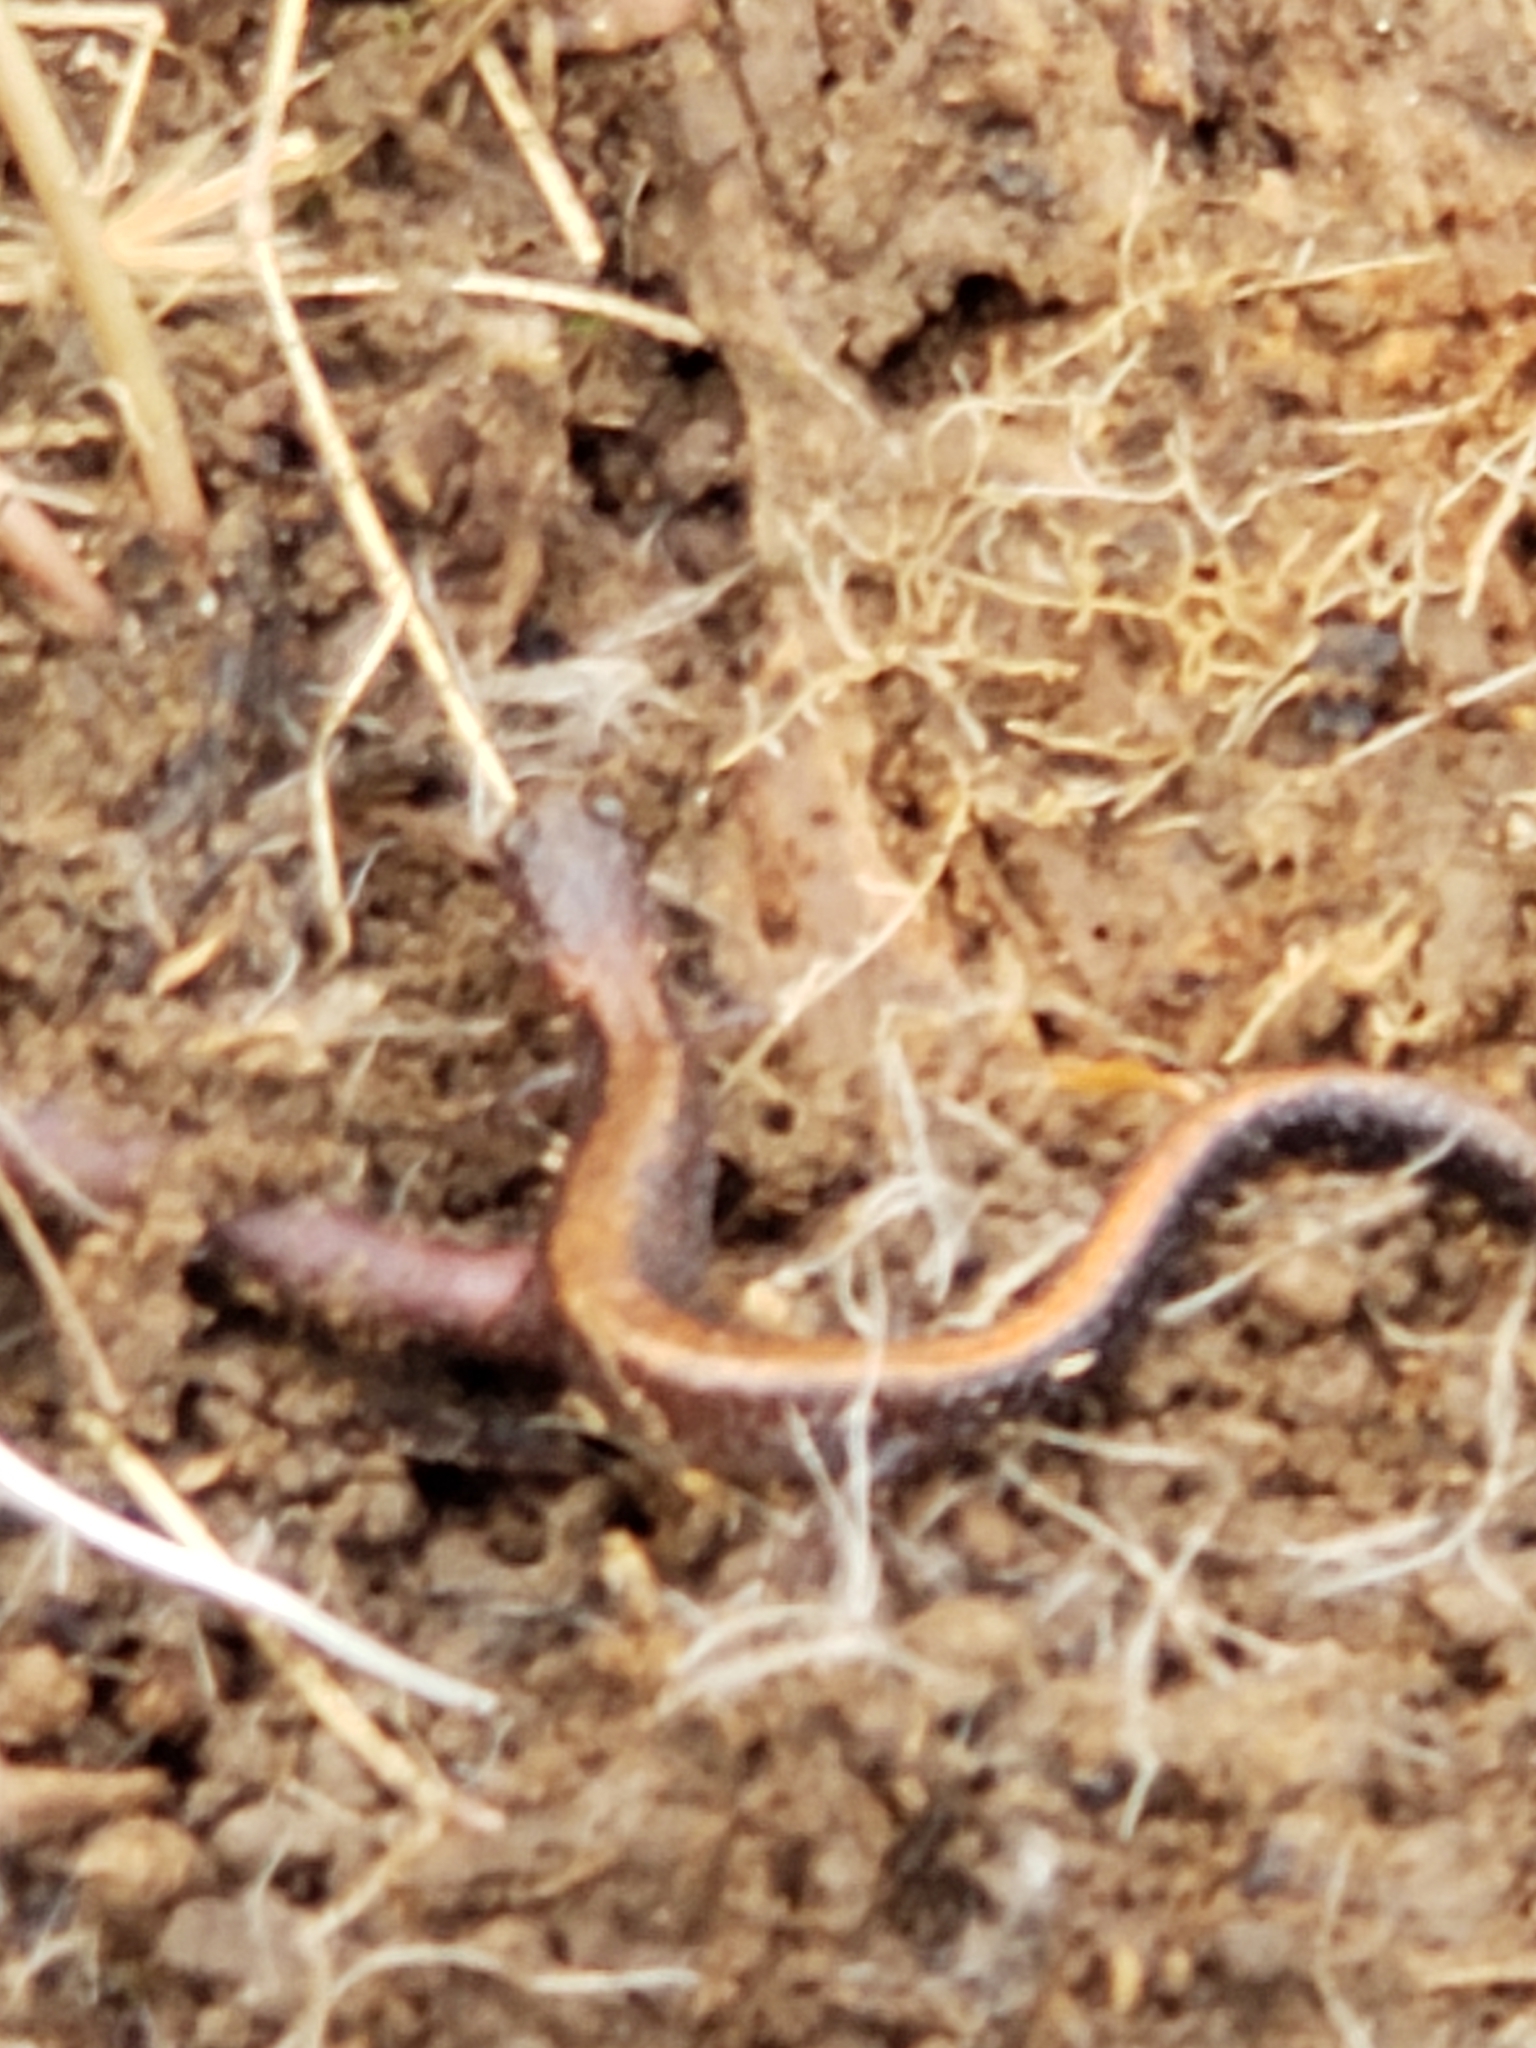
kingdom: Animalia
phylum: Chordata
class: Amphibia
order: Caudata
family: Plethodontidae
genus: Plethodon
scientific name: Plethodon cinereus
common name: Redback salamander
